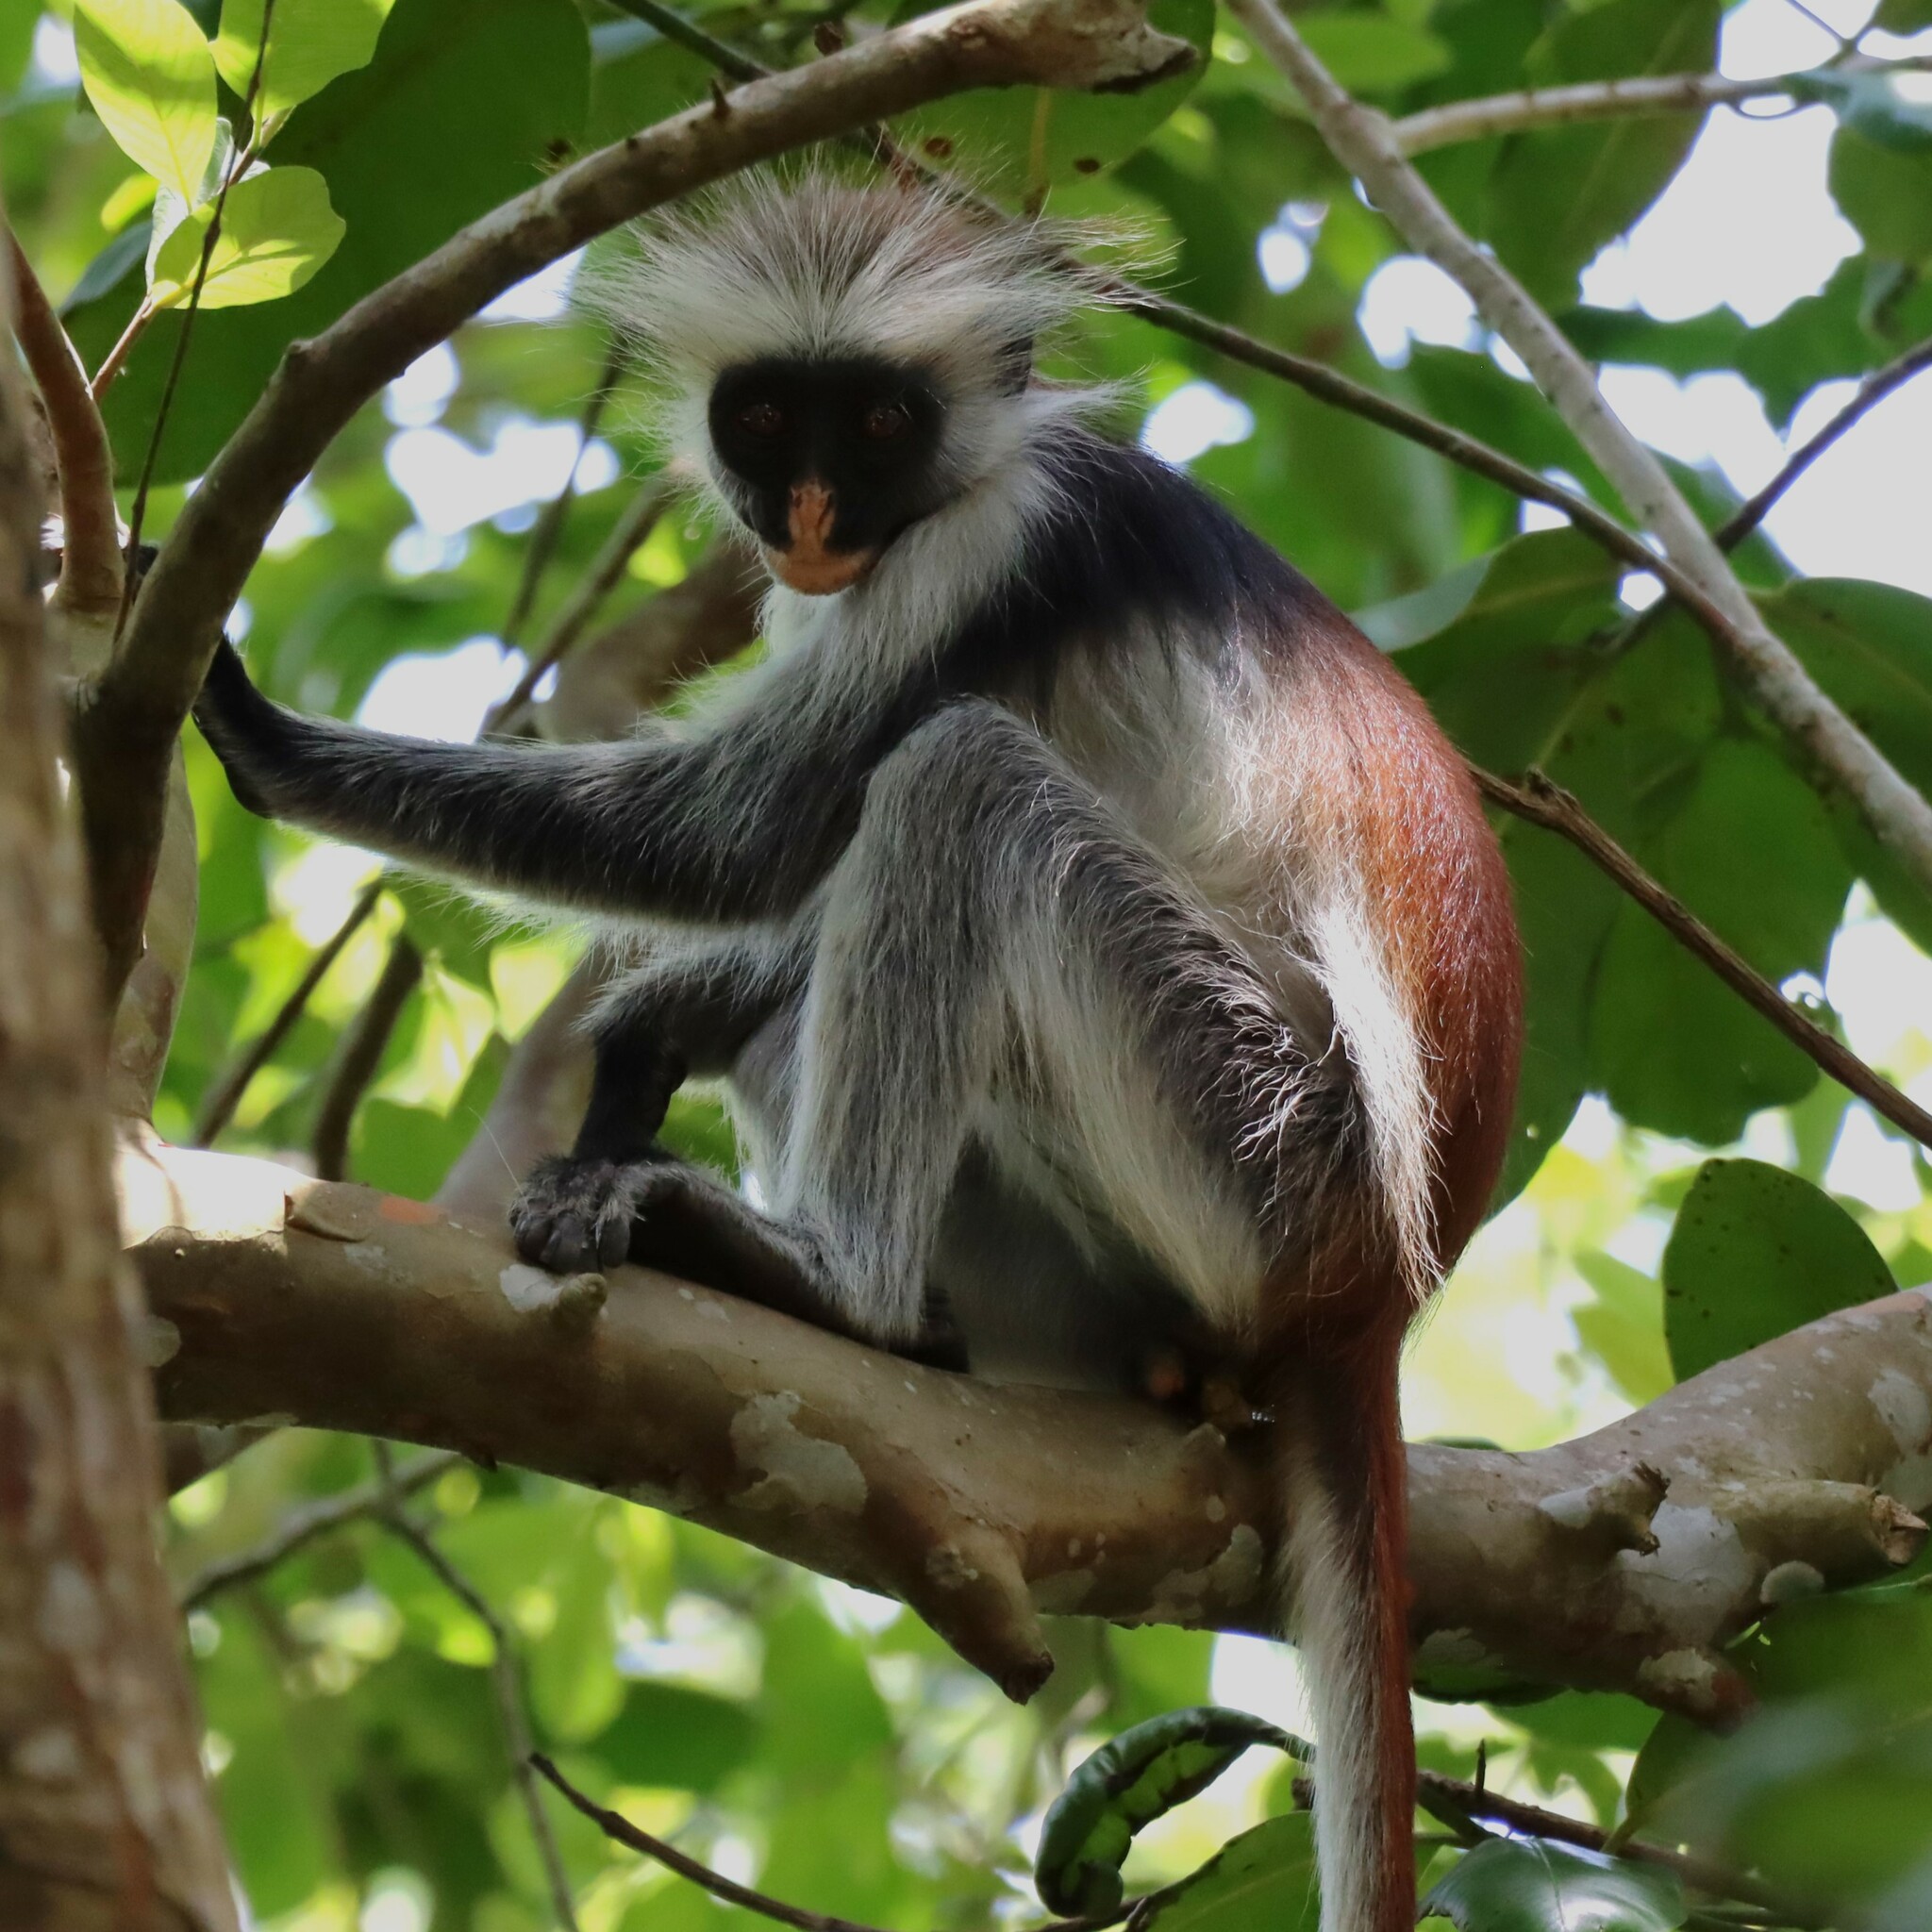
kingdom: Animalia
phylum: Chordata
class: Mammalia
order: Primates
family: Cercopithecidae
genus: Piliocolobus
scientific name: Piliocolobus kirkii
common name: Zanzibar red colobus
